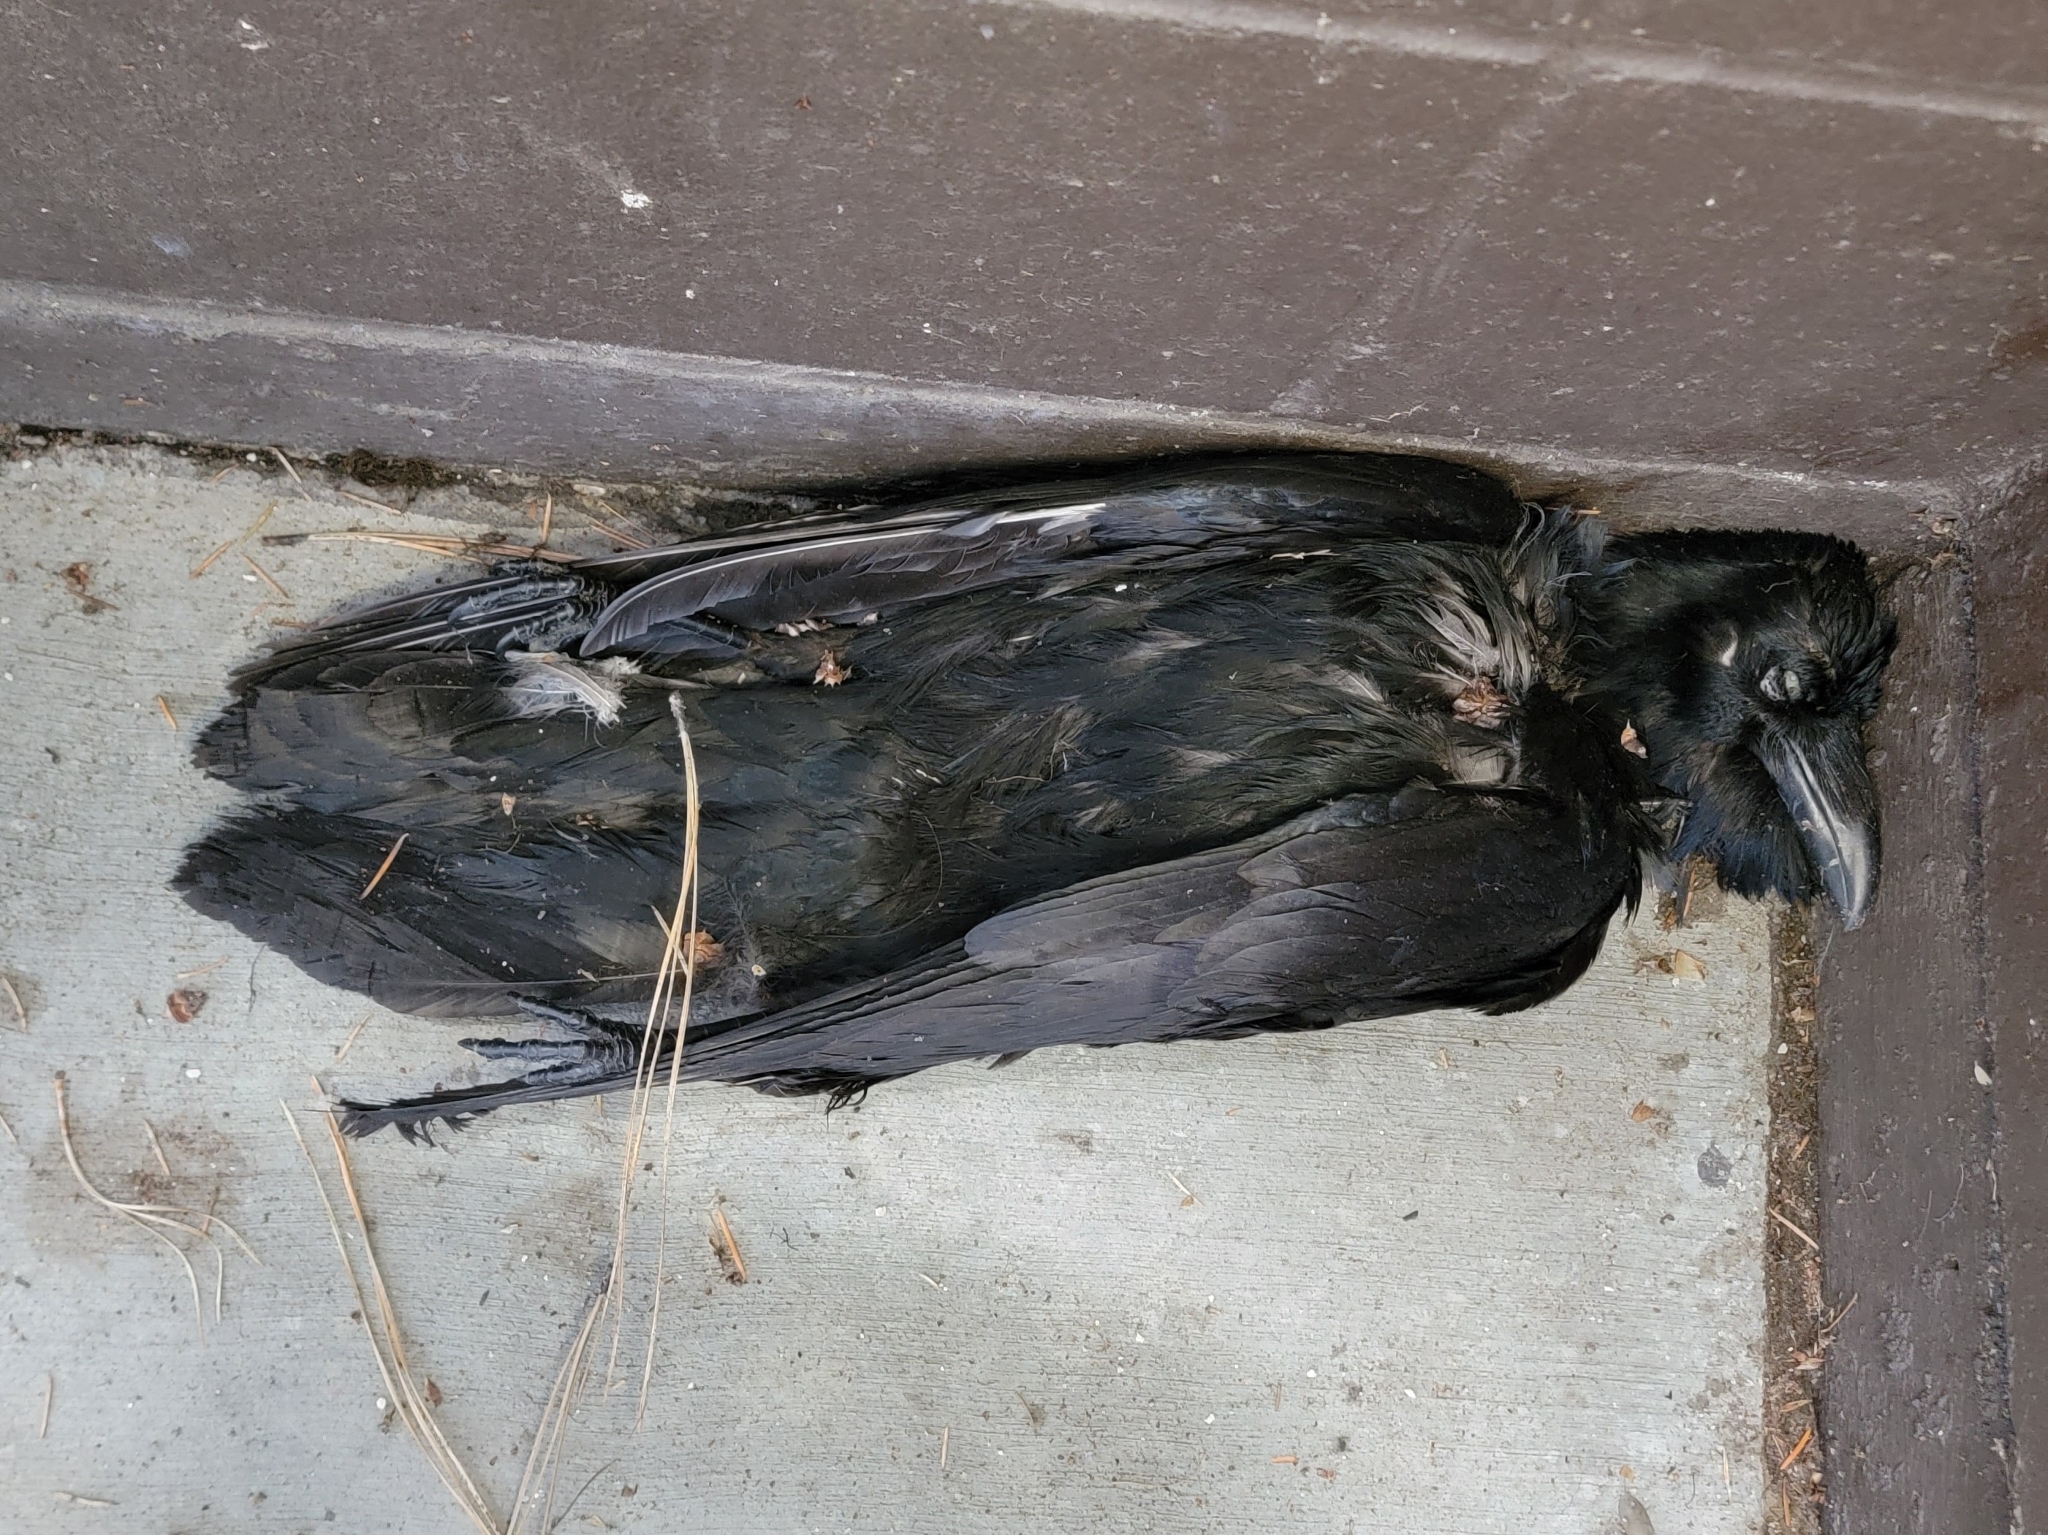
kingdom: Animalia
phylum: Chordata
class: Aves
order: Passeriformes
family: Corvidae
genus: Corvus
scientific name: Corvus corax
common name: Common raven
